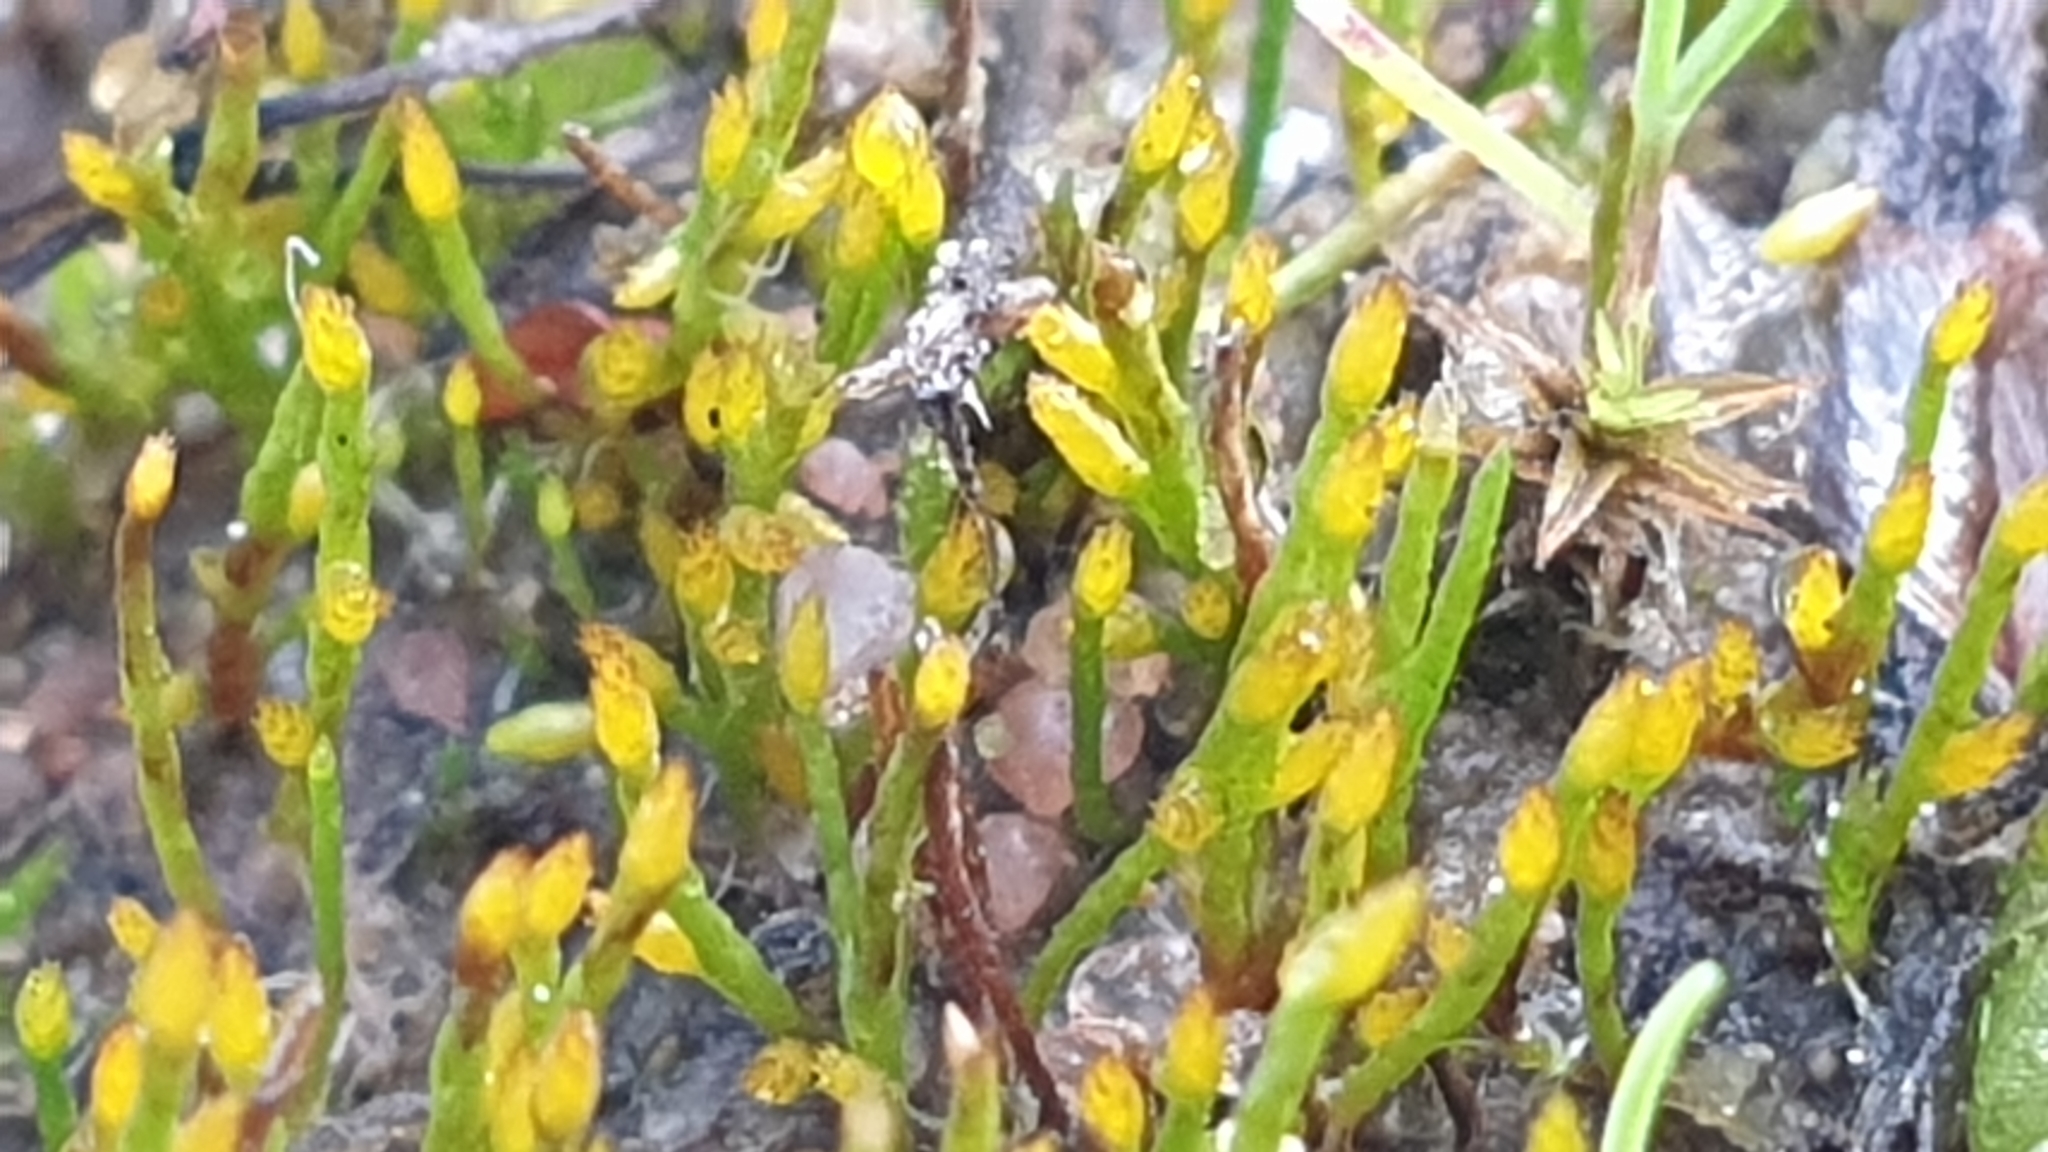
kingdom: Plantae
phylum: Bryophyta
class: Bryopsida
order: Dicranales
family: Dicranellaceae
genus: Eccremidium
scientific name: Eccremidium pulchellum
